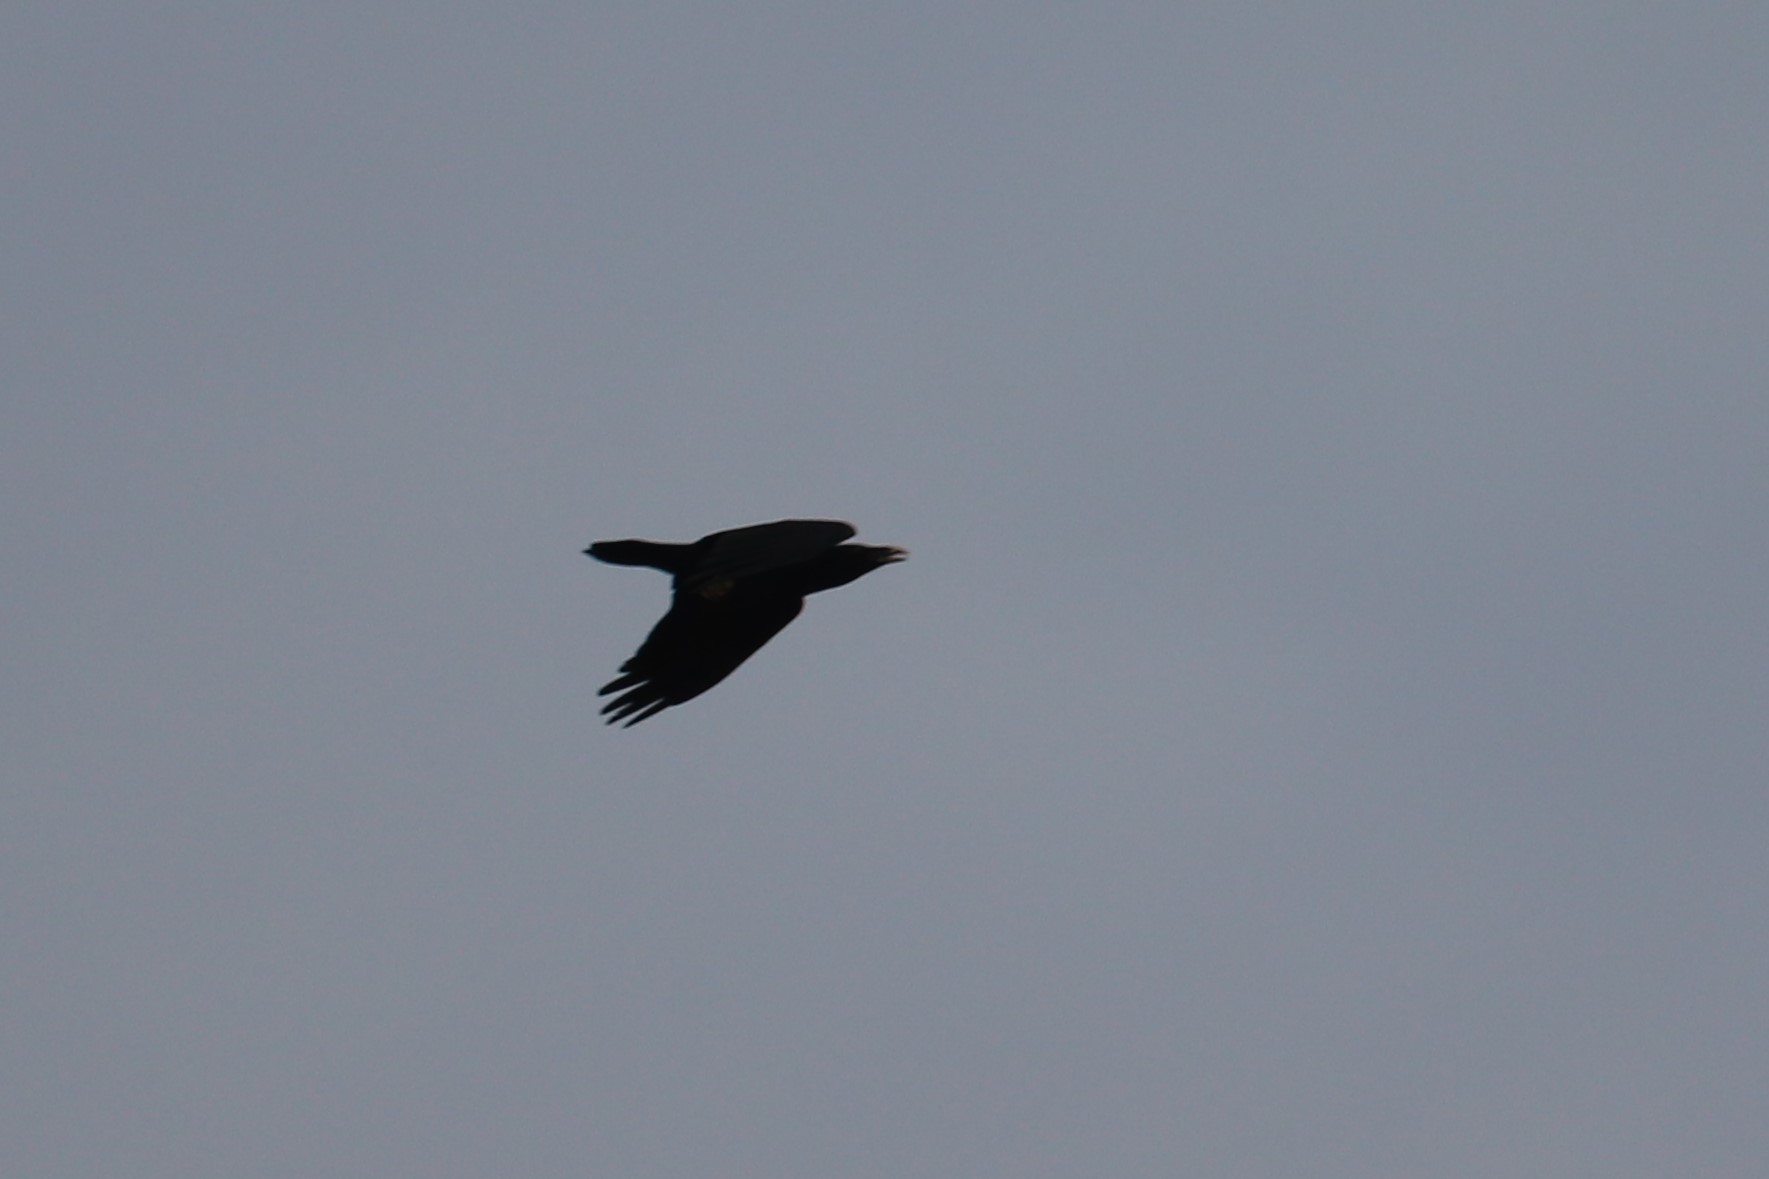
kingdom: Animalia
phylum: Chordata
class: Aves
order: Passeriformes
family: Corvidae
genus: Corvus
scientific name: Corvus corax
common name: Common raven
